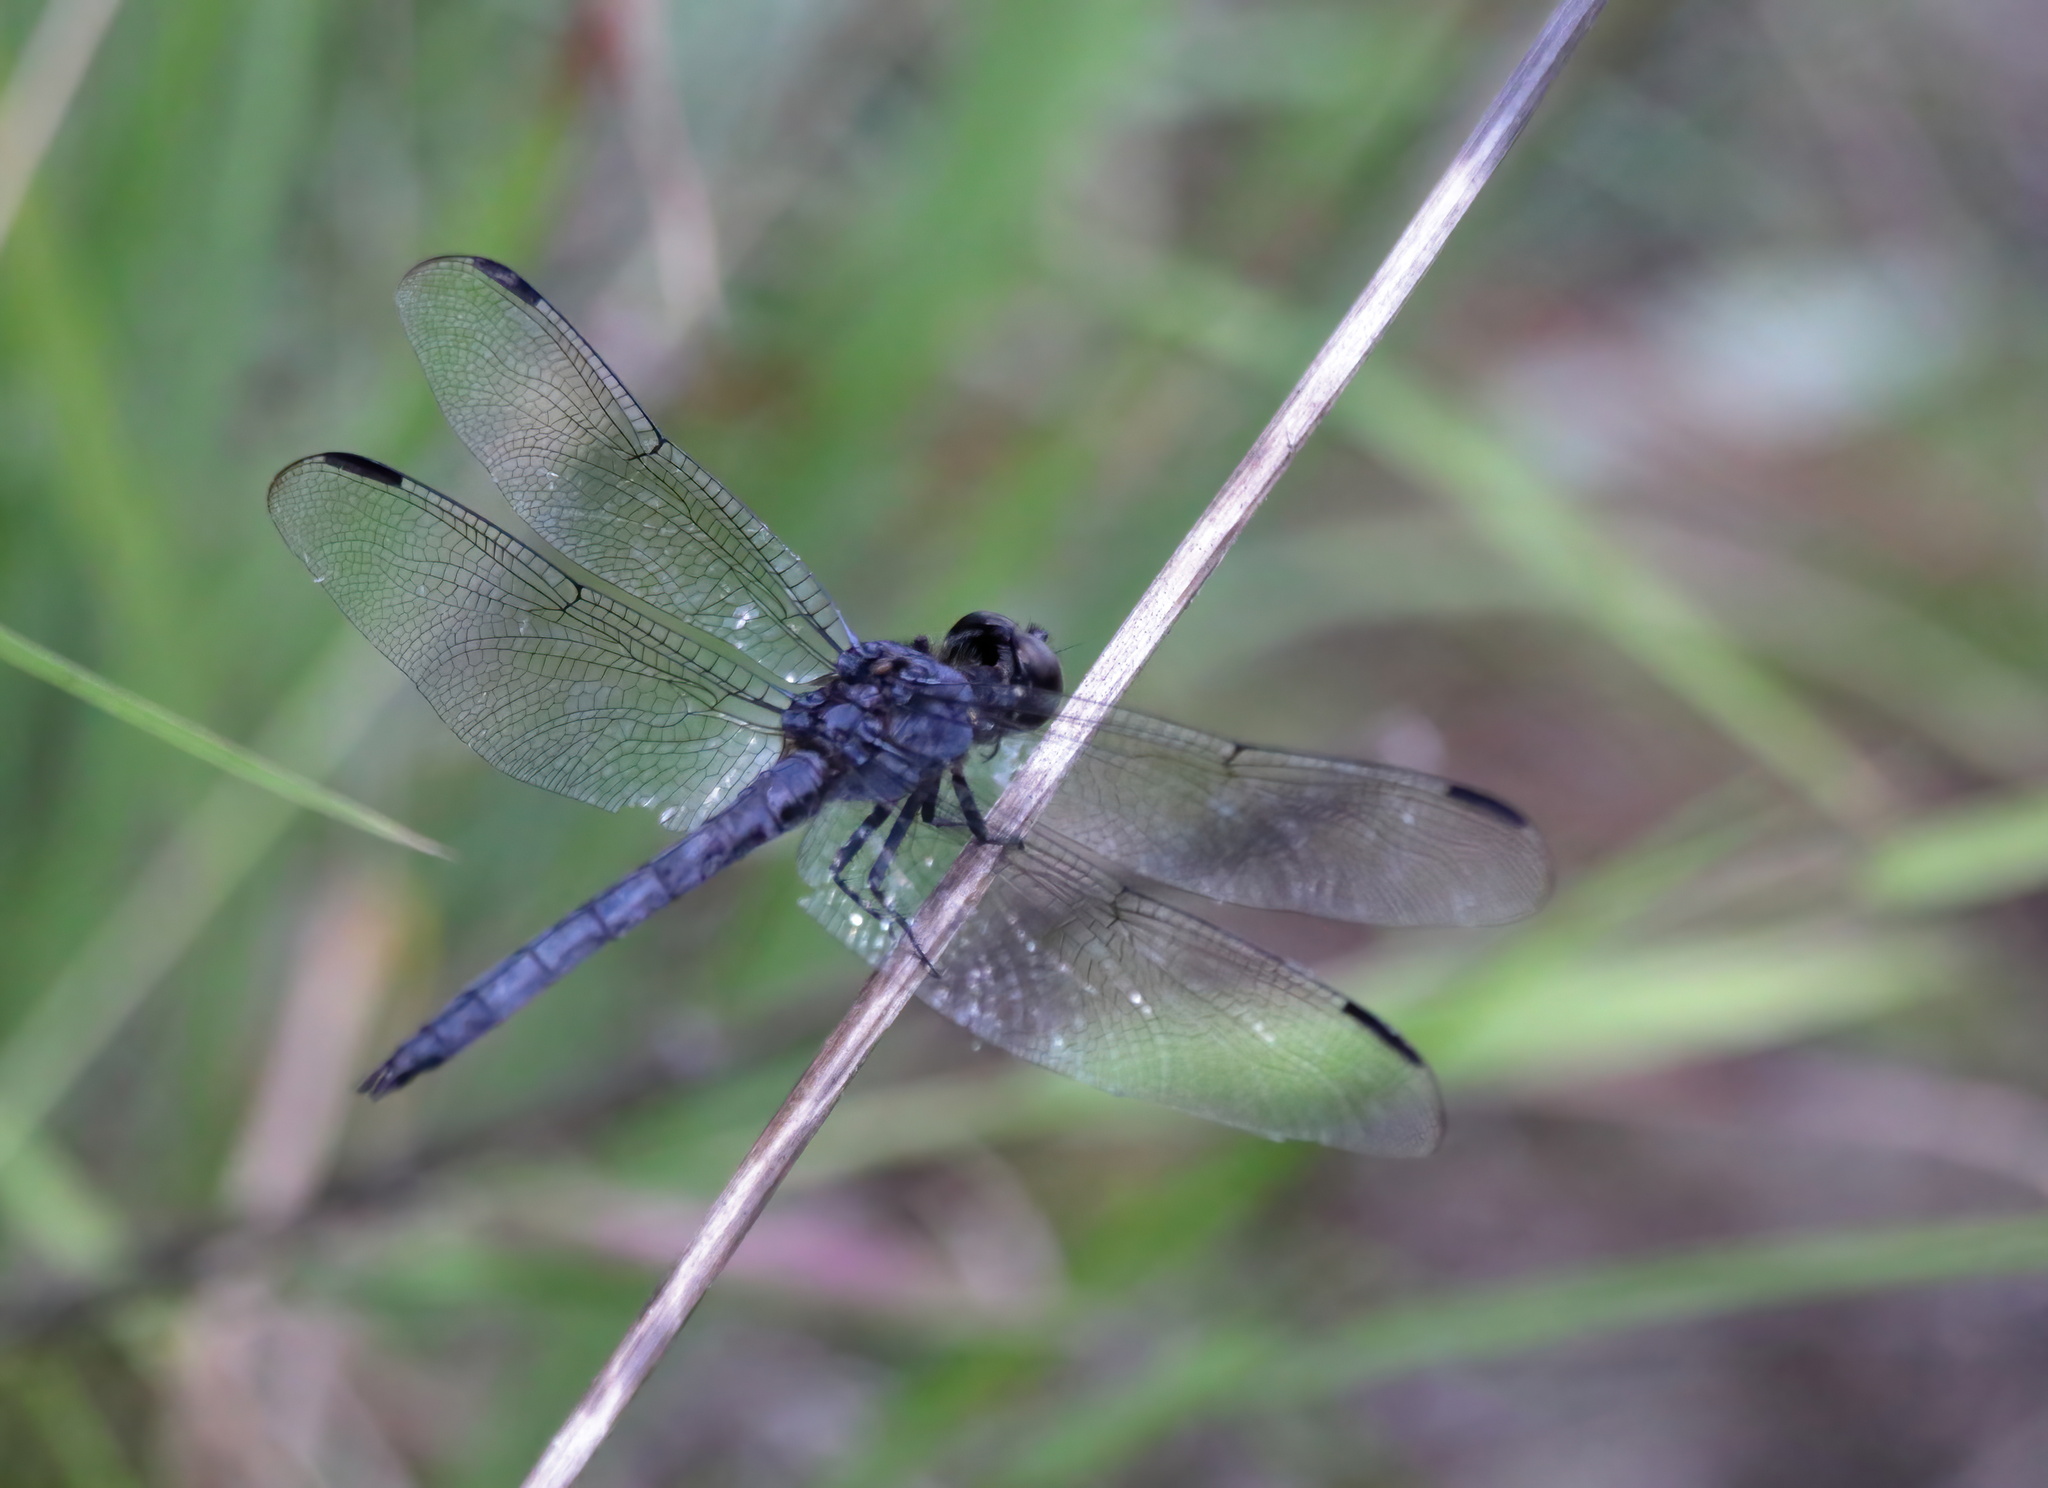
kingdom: Animalia
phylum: Arthropoda
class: Insecta
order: Odonata
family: Libellulidae
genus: Libellula
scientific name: Libellula incesta
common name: Slaty skimmer
